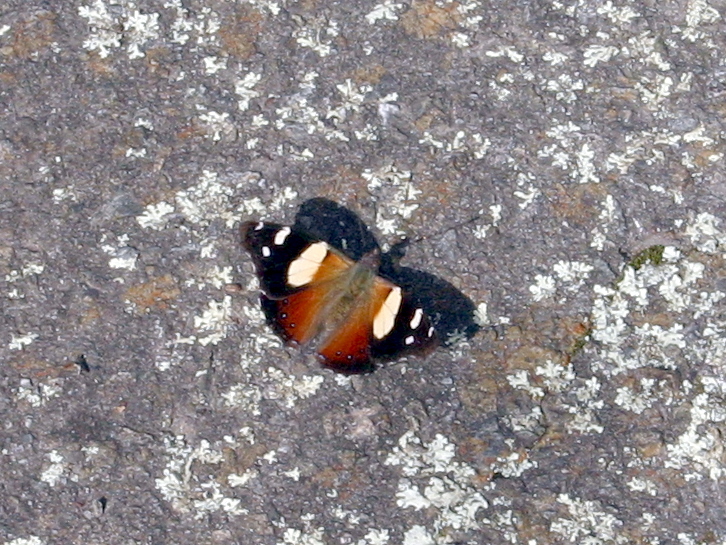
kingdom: Animalia
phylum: Arthropoda
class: Insecta
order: Lepidoptera
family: Nymphalidae
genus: Vanessa
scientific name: Vanessa itea
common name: Yellow admiral
